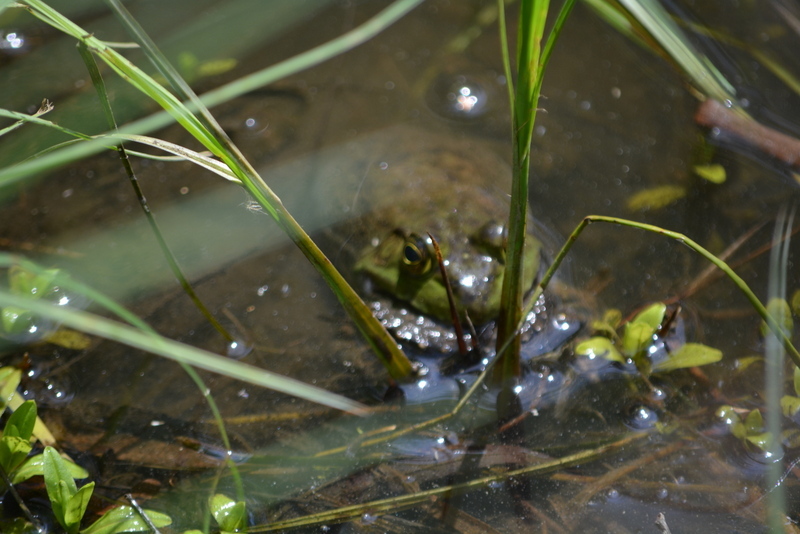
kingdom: Animalia
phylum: Chordata
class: Amphibia
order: Anura
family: Ranidae
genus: Lithobates
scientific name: Lithobates catesbeianus
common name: American bullfrog
